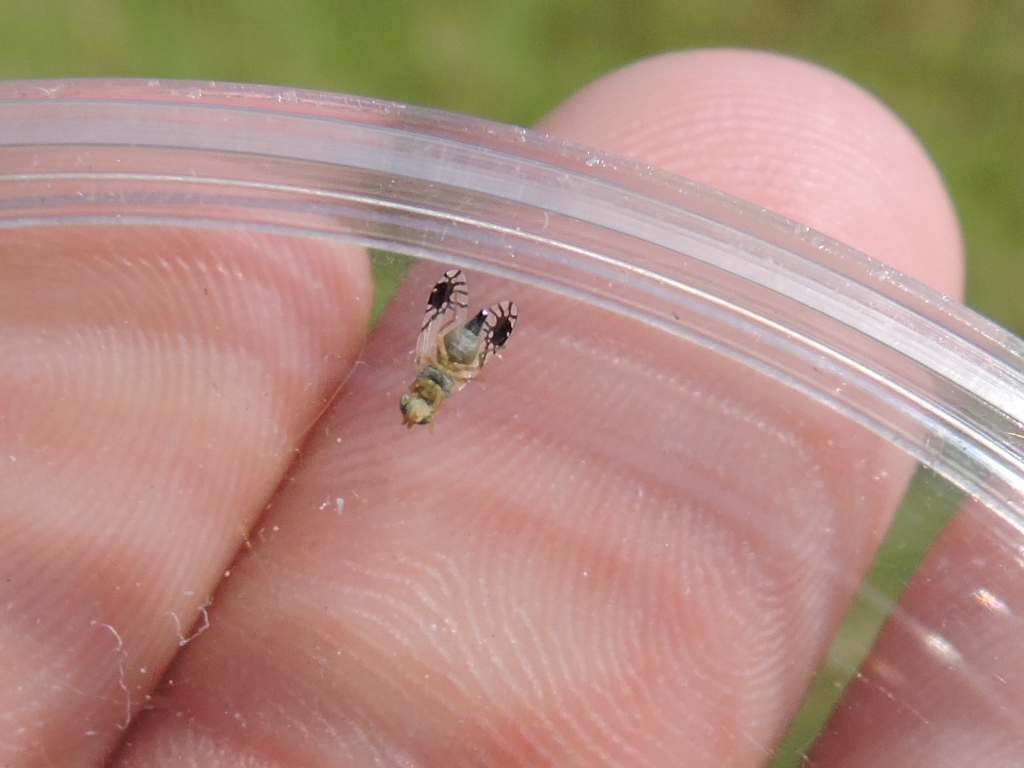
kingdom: Animalia
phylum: Arthropoda
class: Insecta
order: Diptera
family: Tephritidae
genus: Trupanea
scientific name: Trupanea vicina
